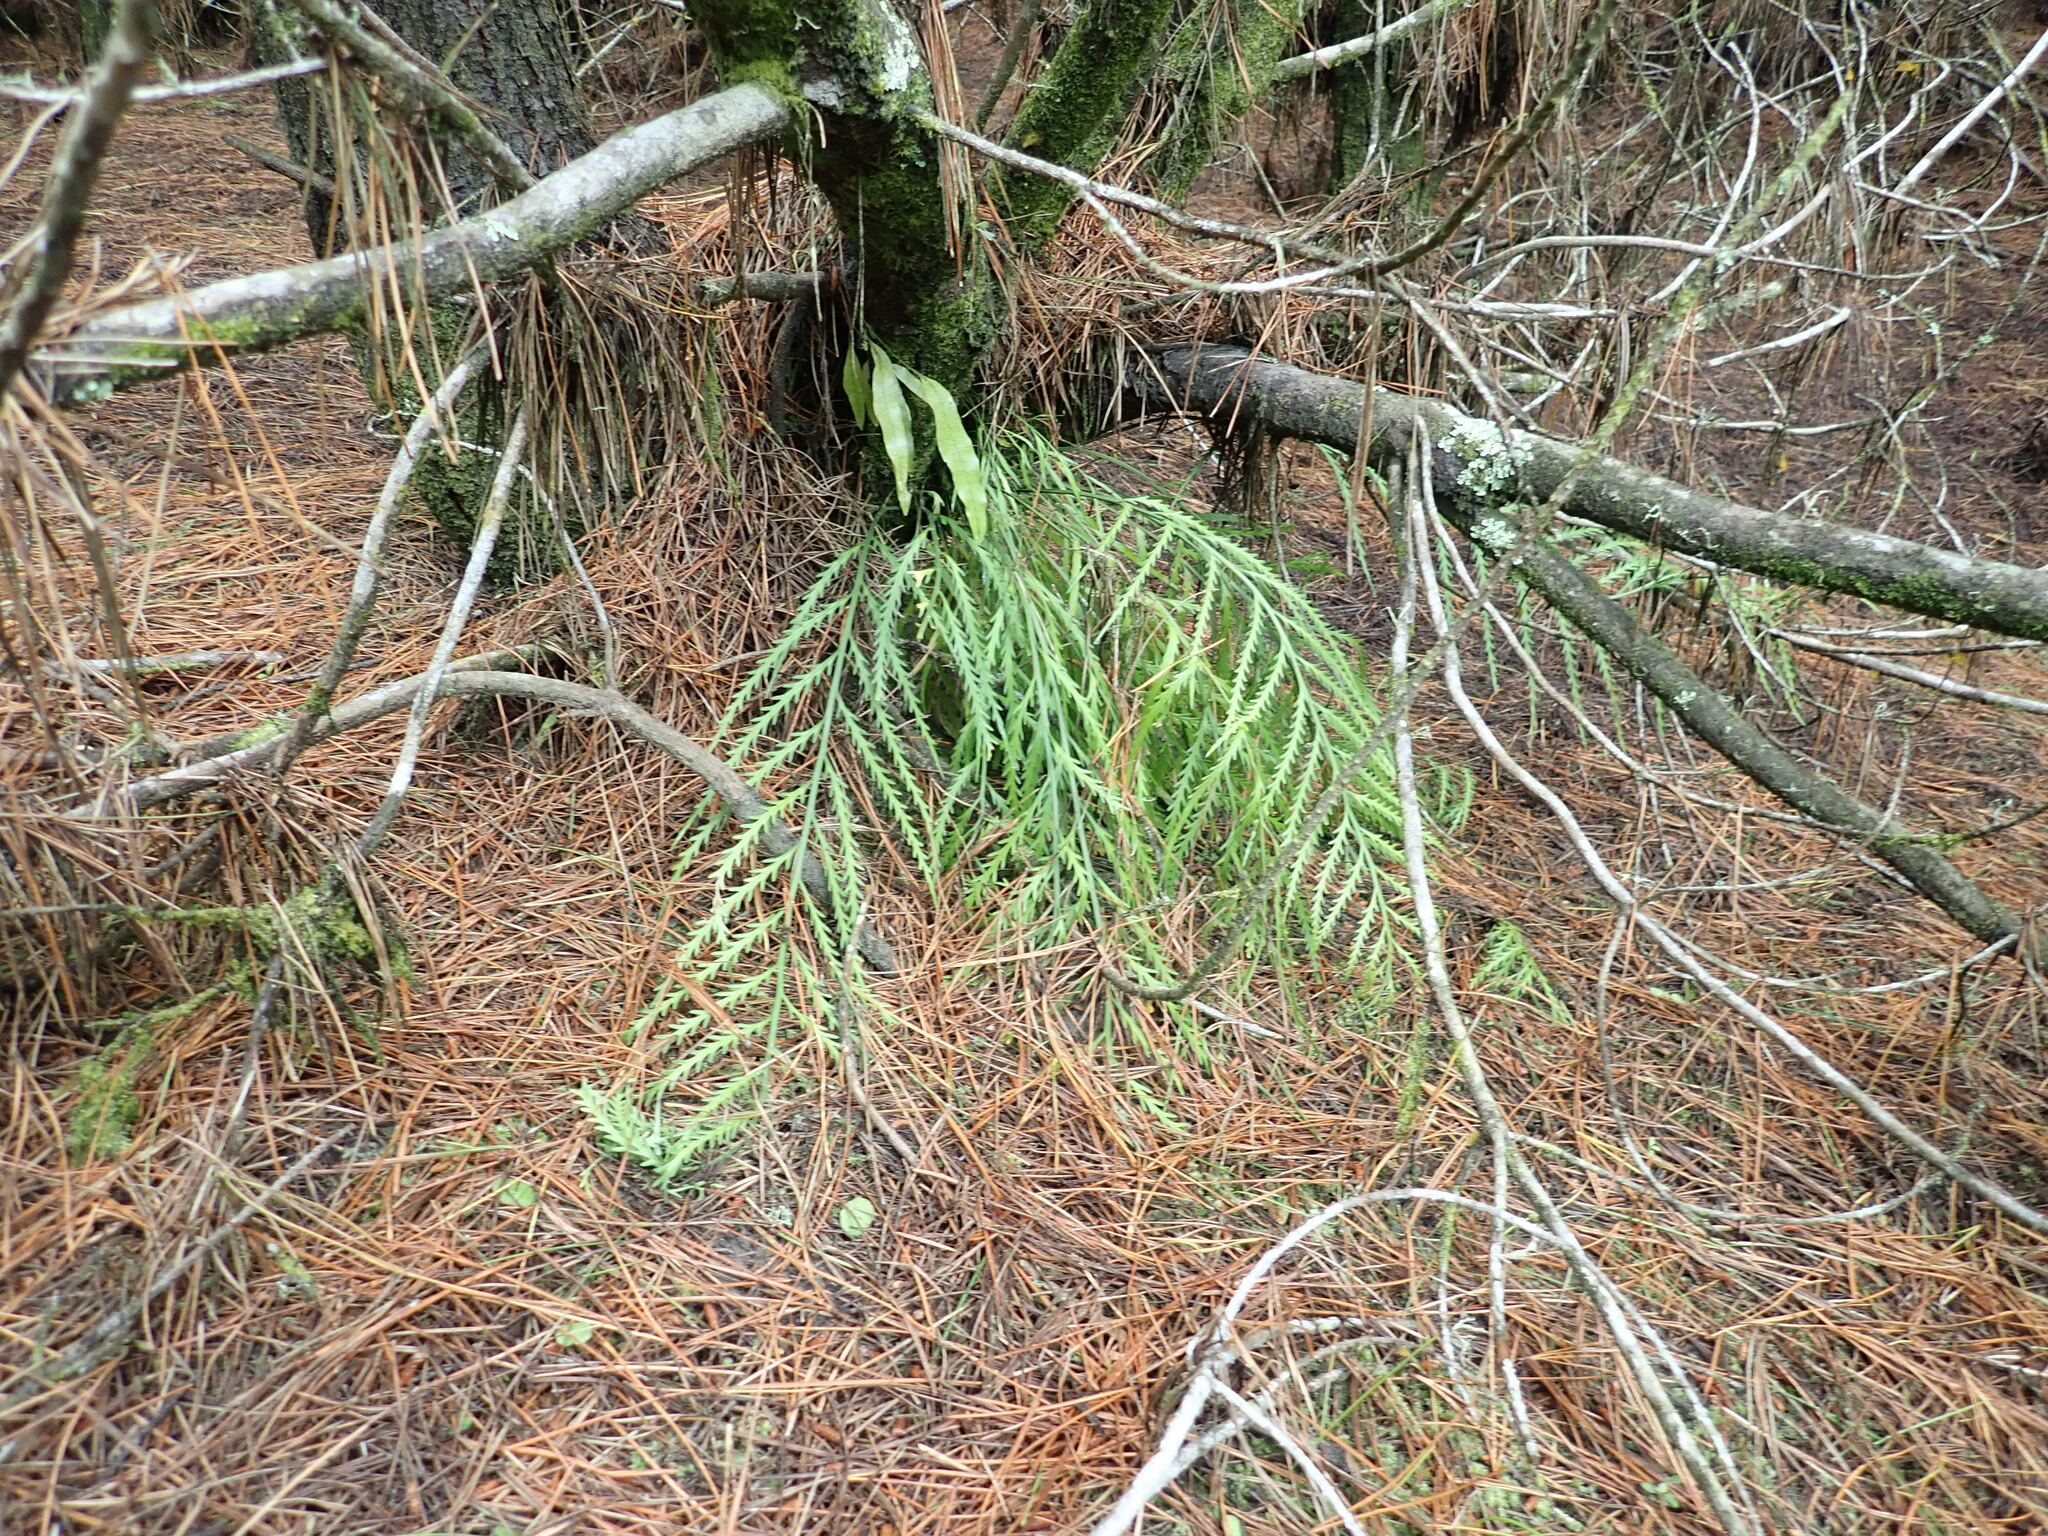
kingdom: Plantae
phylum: Tracheophyta
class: Polypodiopsida
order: Polypodiales
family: Aspleniaceae
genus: Asplenium
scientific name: Asplenium flaccidum
